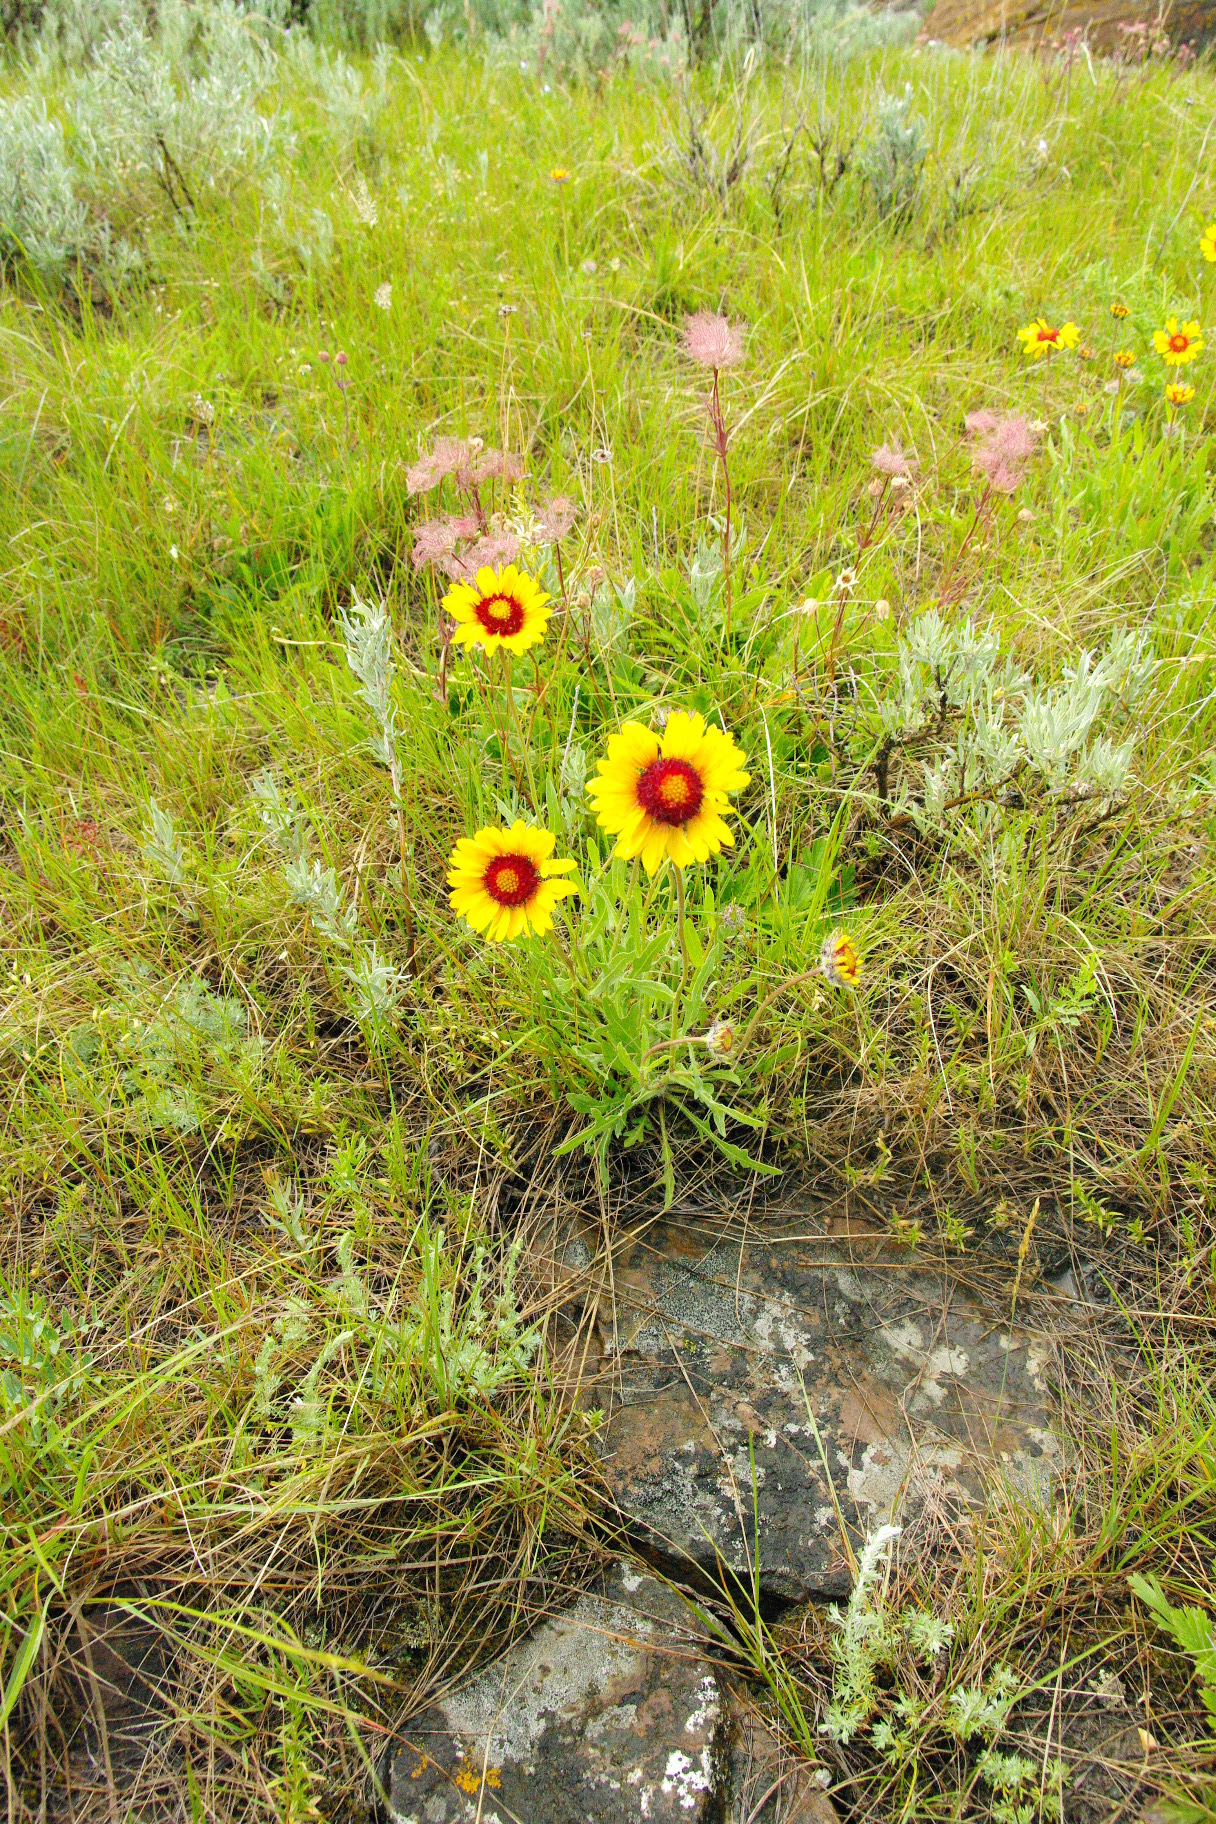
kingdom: Plantae
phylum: Tracheophyta
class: Magnoliopsida
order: Asterales
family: Asteraceae
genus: Gaillardia
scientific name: Gaillardia aristata
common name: Blanket-flower
